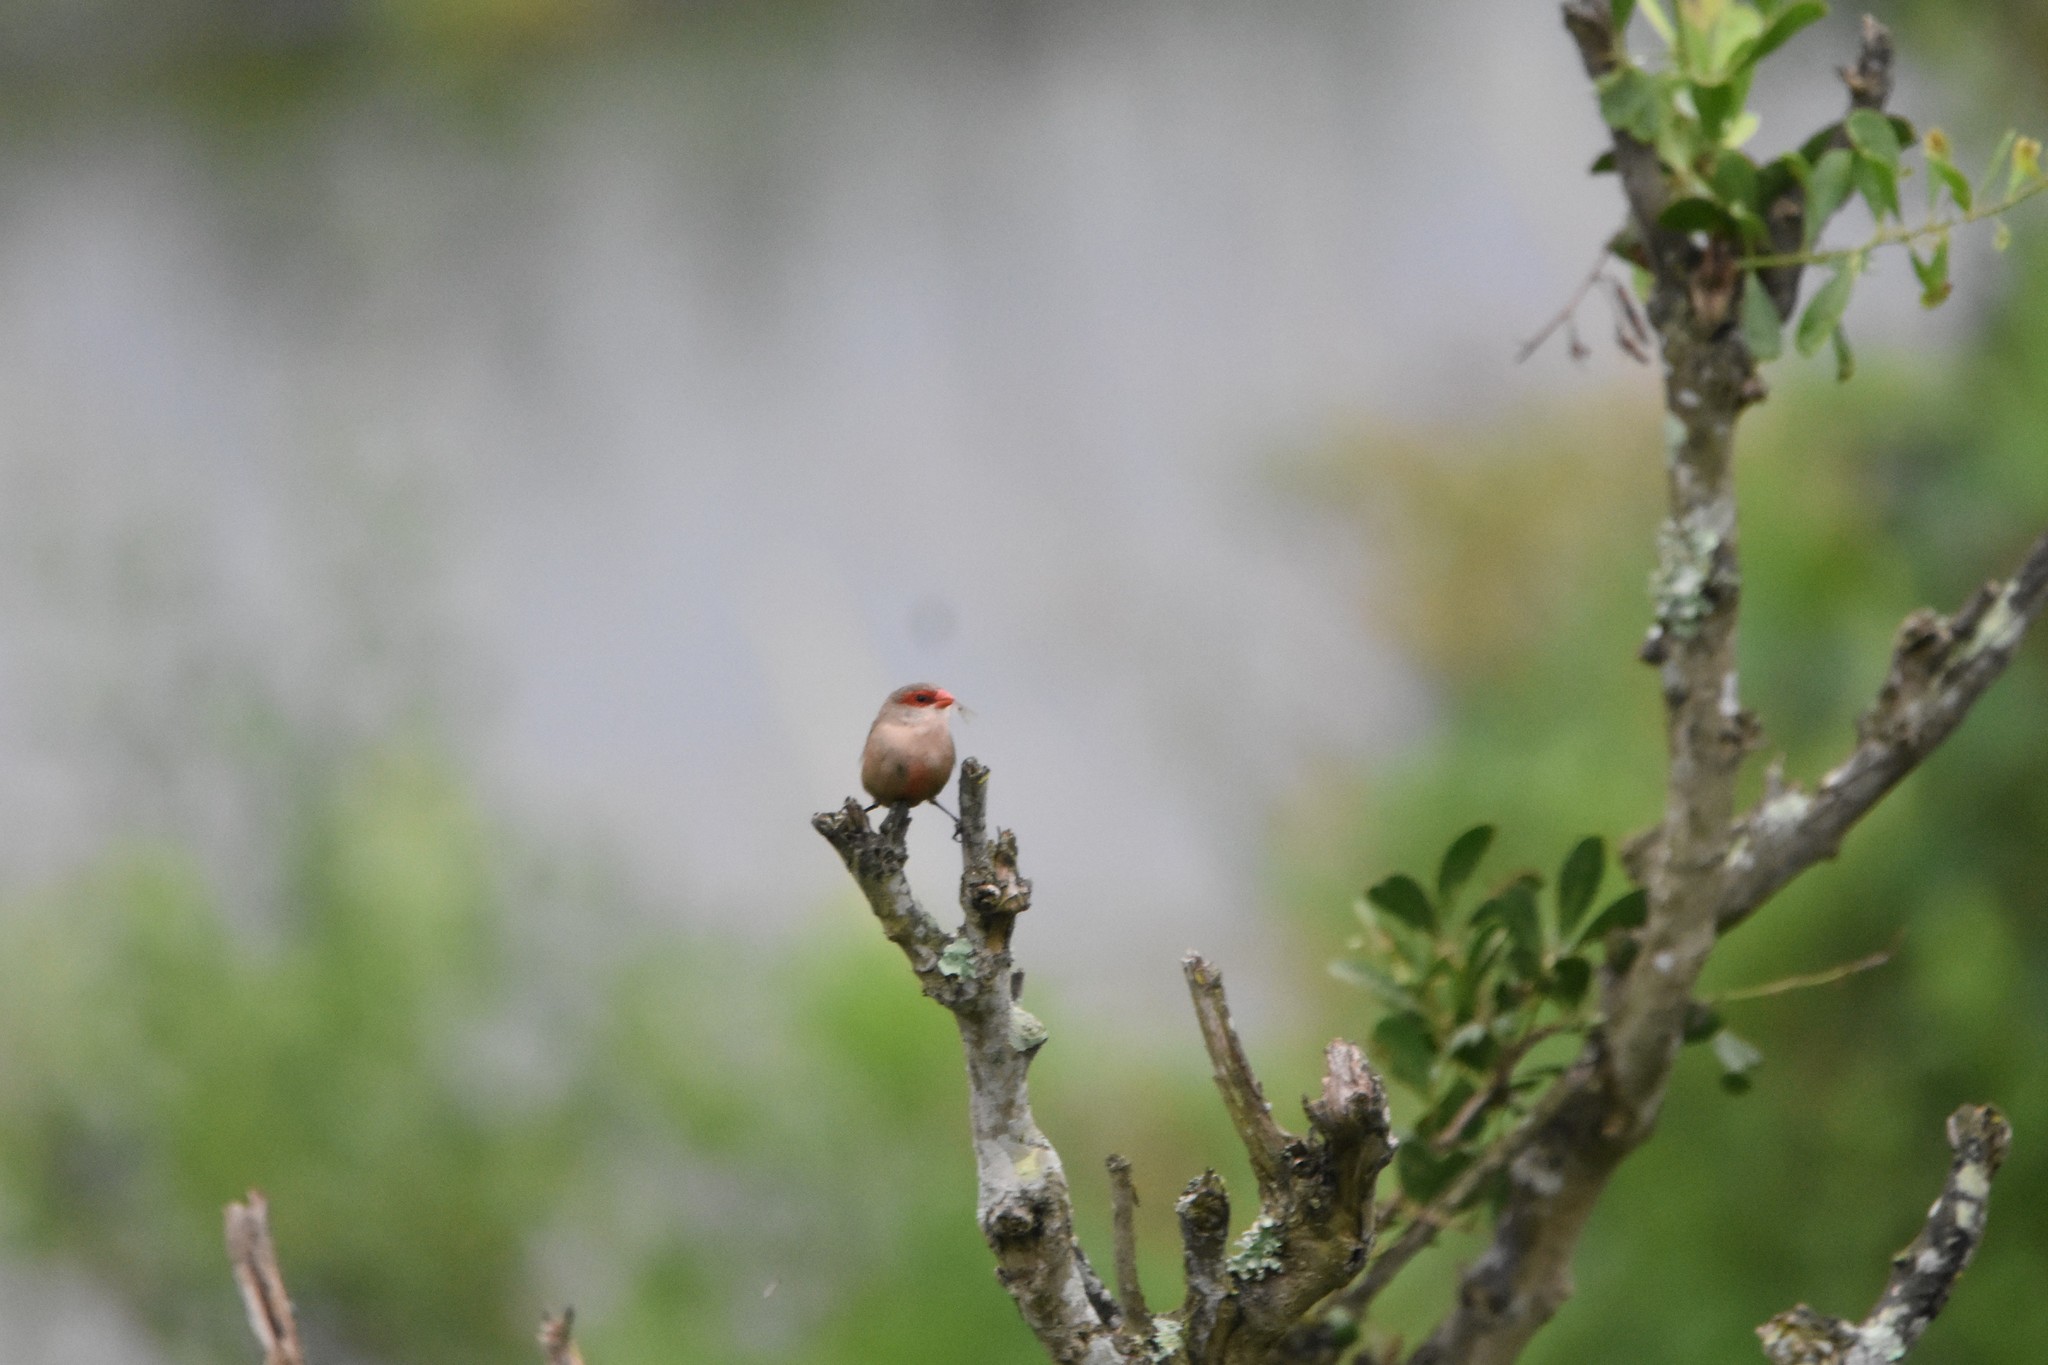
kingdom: Animalia
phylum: Chordata
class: Aves
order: Passeriformes
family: Estrildidae
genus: Estrilda
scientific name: Estrilda astrild
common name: Common waxbill
